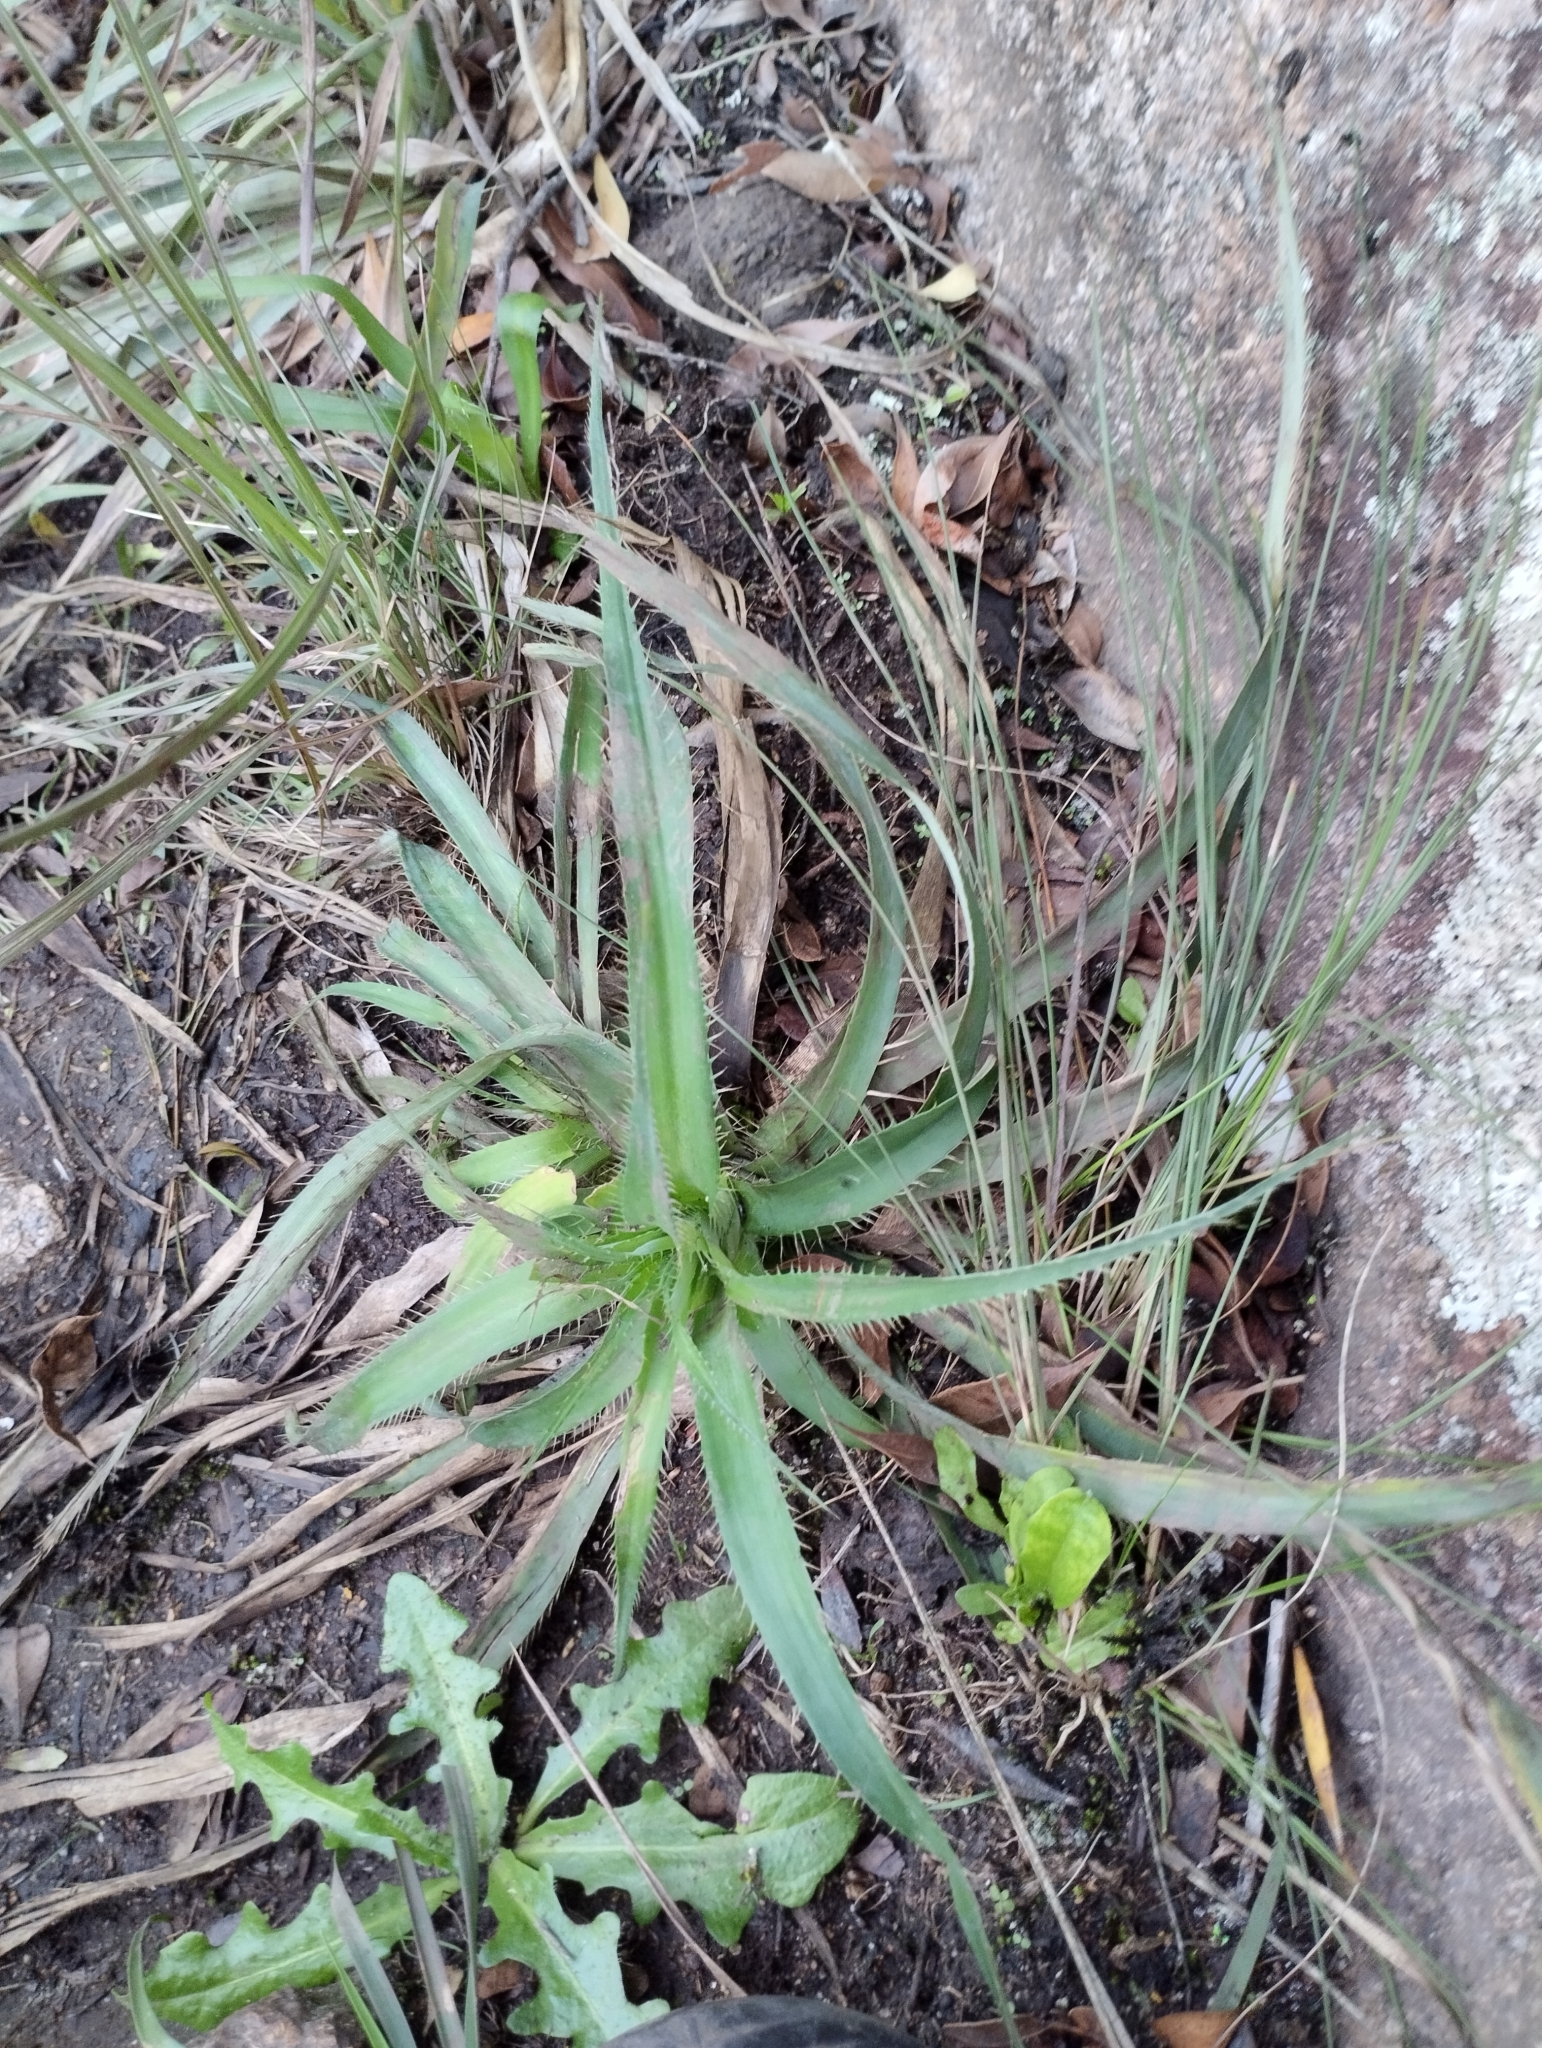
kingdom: Plantae
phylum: Tracheophyta
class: Magnoliopsida
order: Apiales
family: Apiaceae
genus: Eryngium
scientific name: Eryngium regnellii
